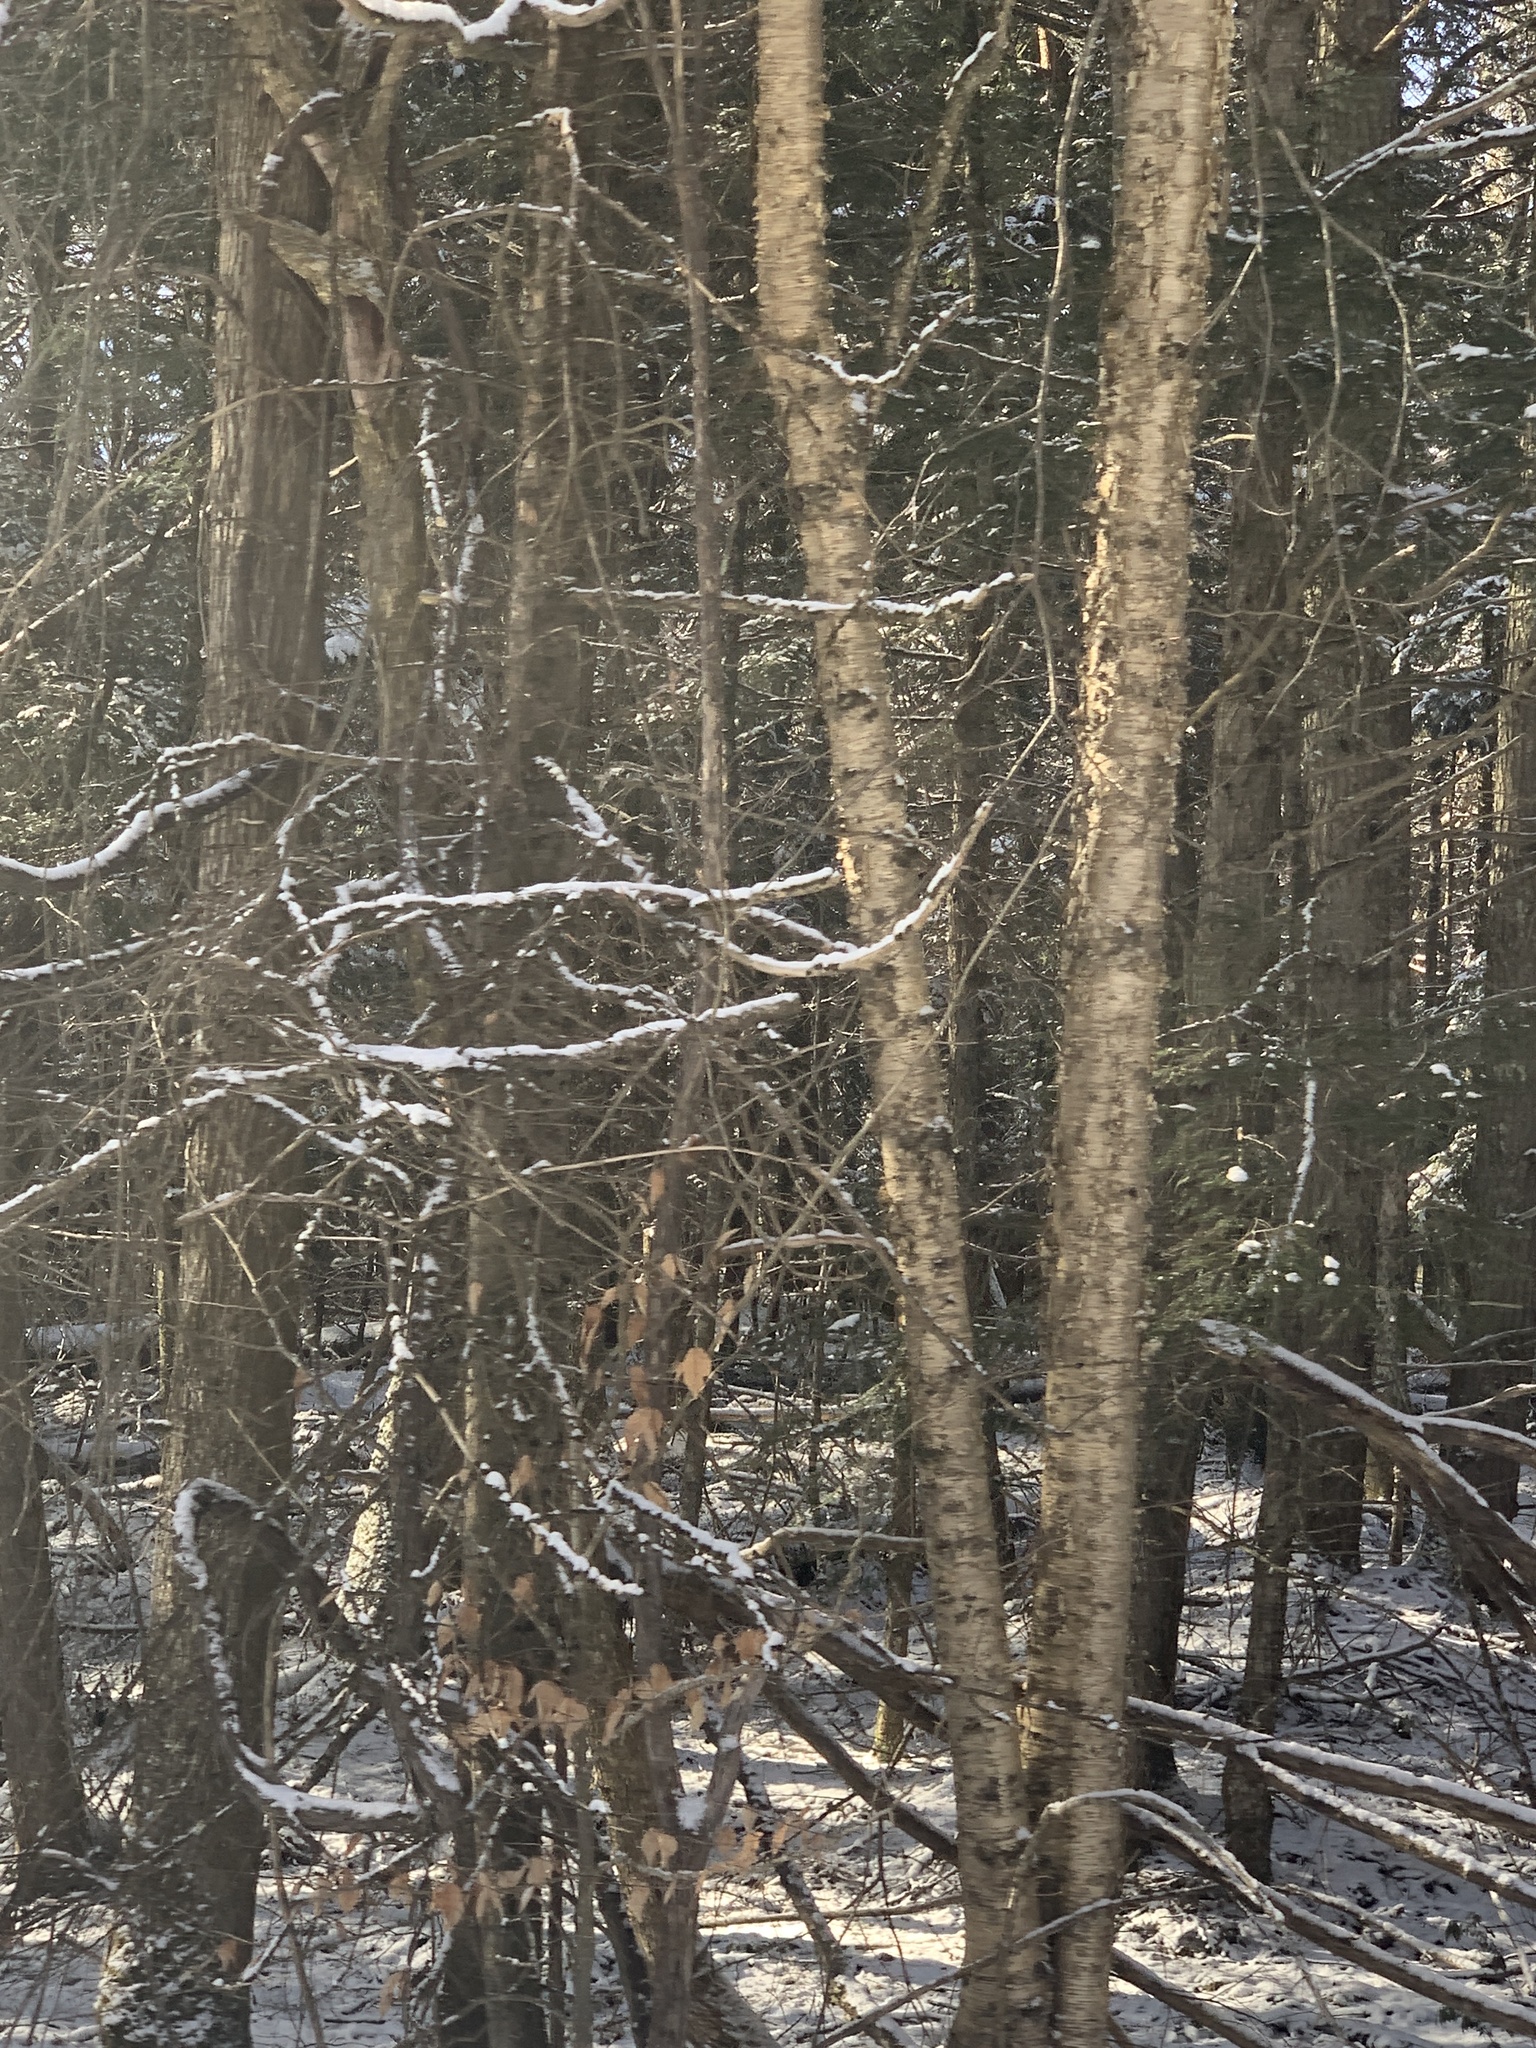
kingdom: Plantae
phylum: Tracheophyta
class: Magnoliopsida
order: Fagales
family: Betulaceae
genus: Betula
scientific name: Betula alleghaniensis
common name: Yellow birch
